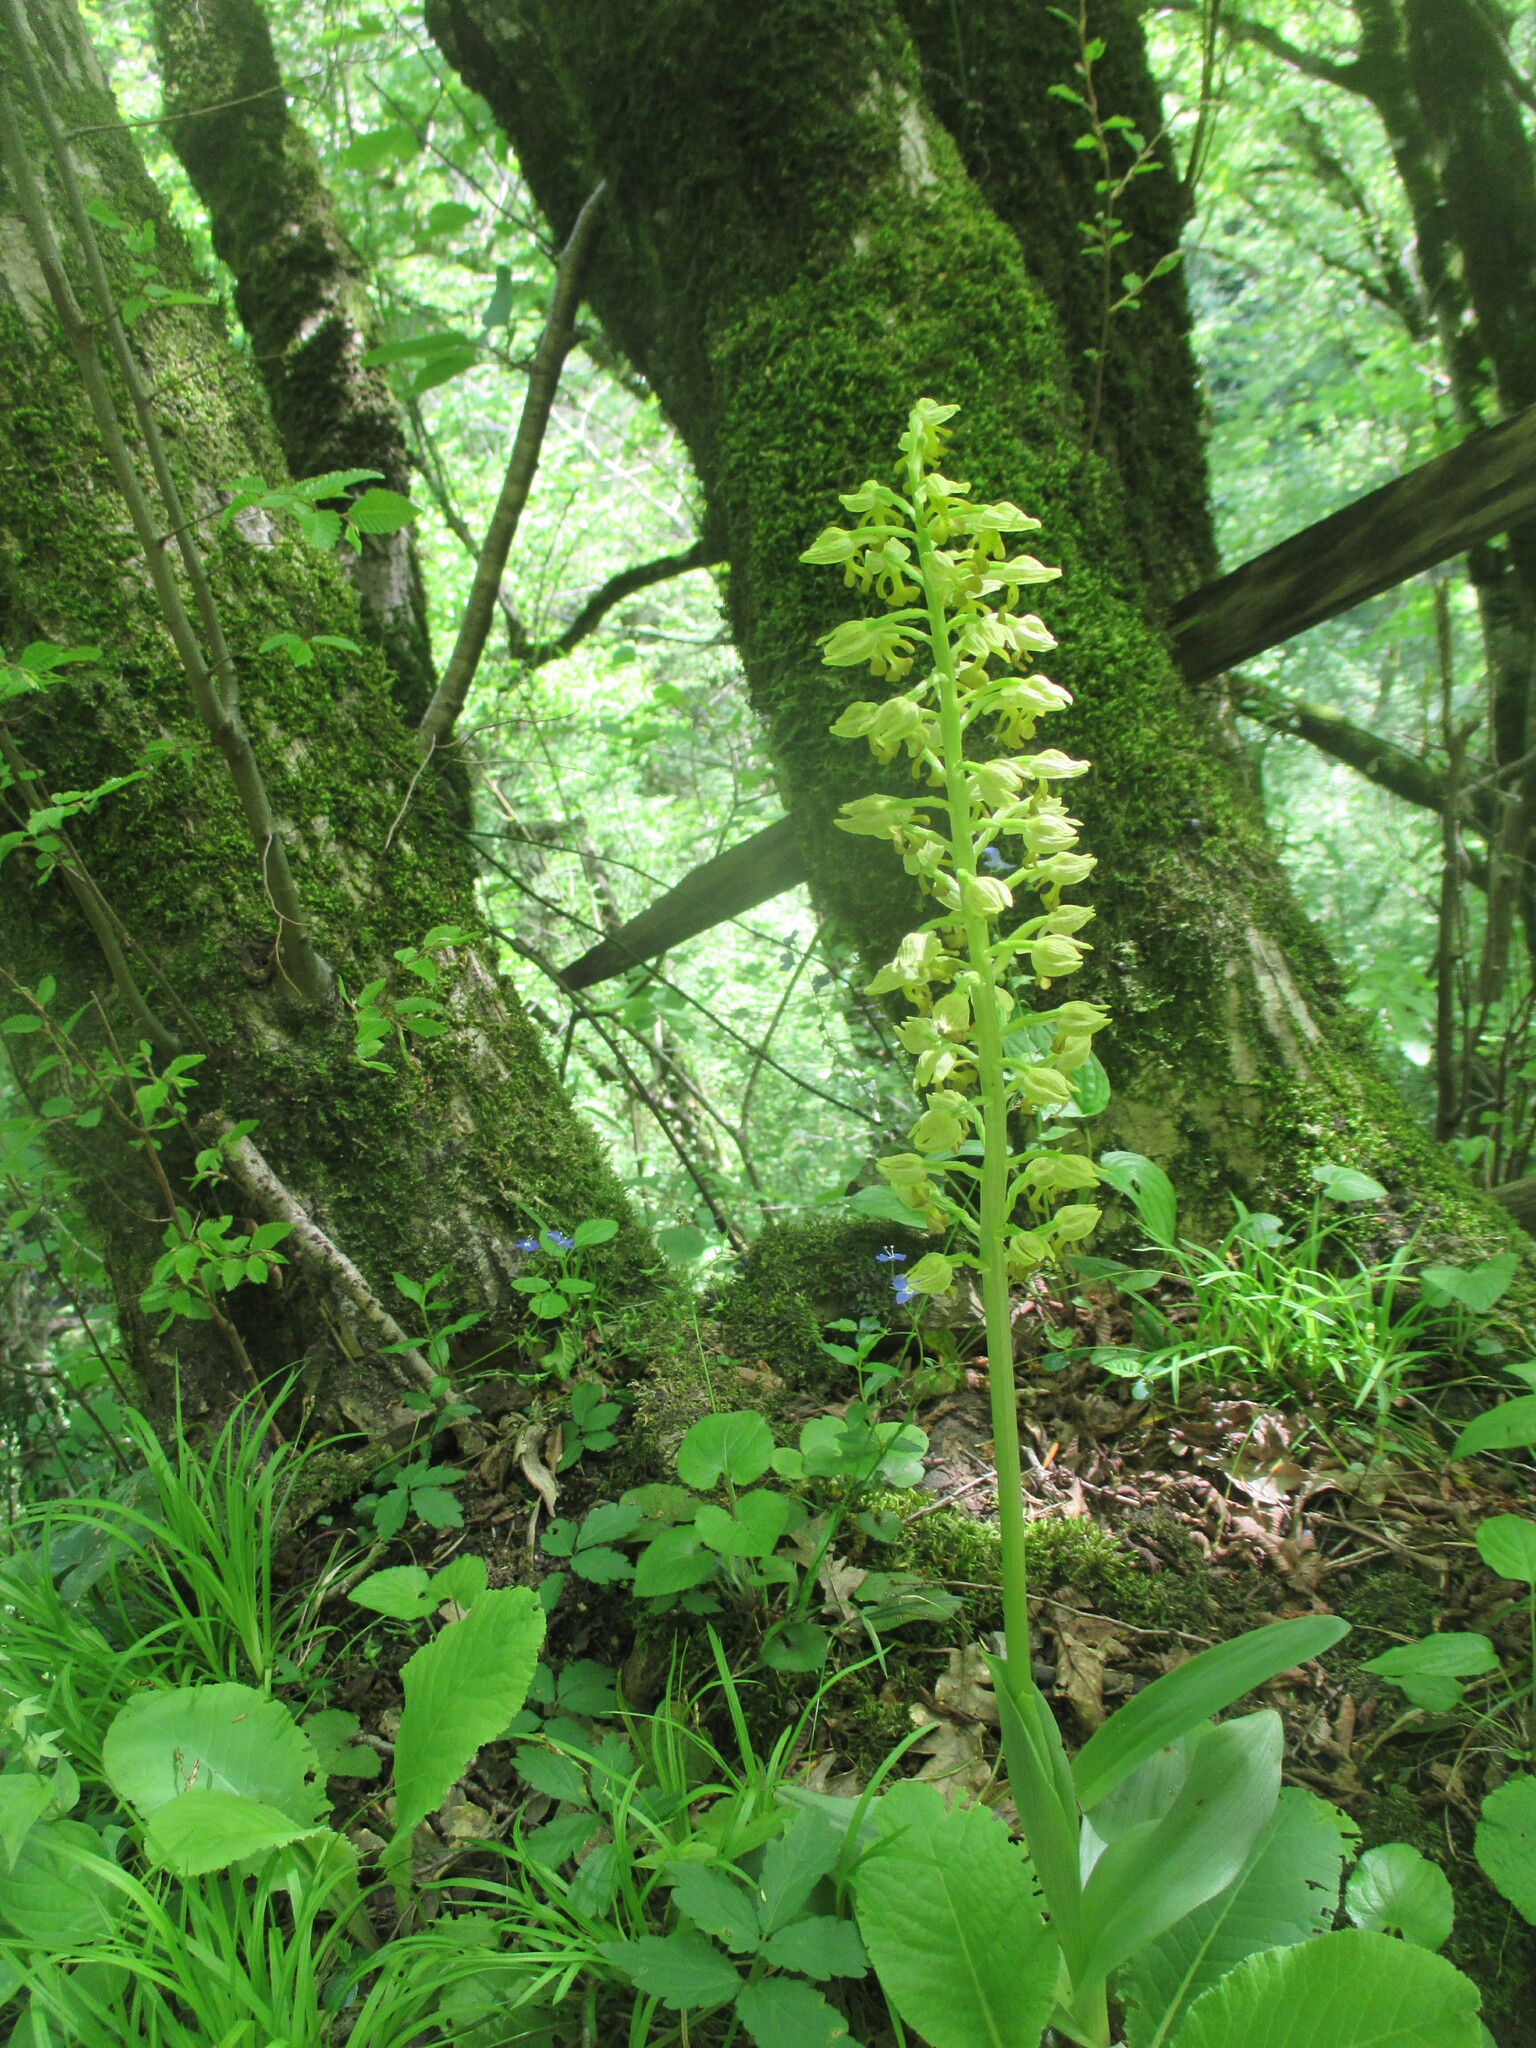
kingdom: Plantae
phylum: Tracheophyta
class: Liliopsida
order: Asparagales
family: Orchidaceae
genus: Orchis
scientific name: Orchis punctulata
